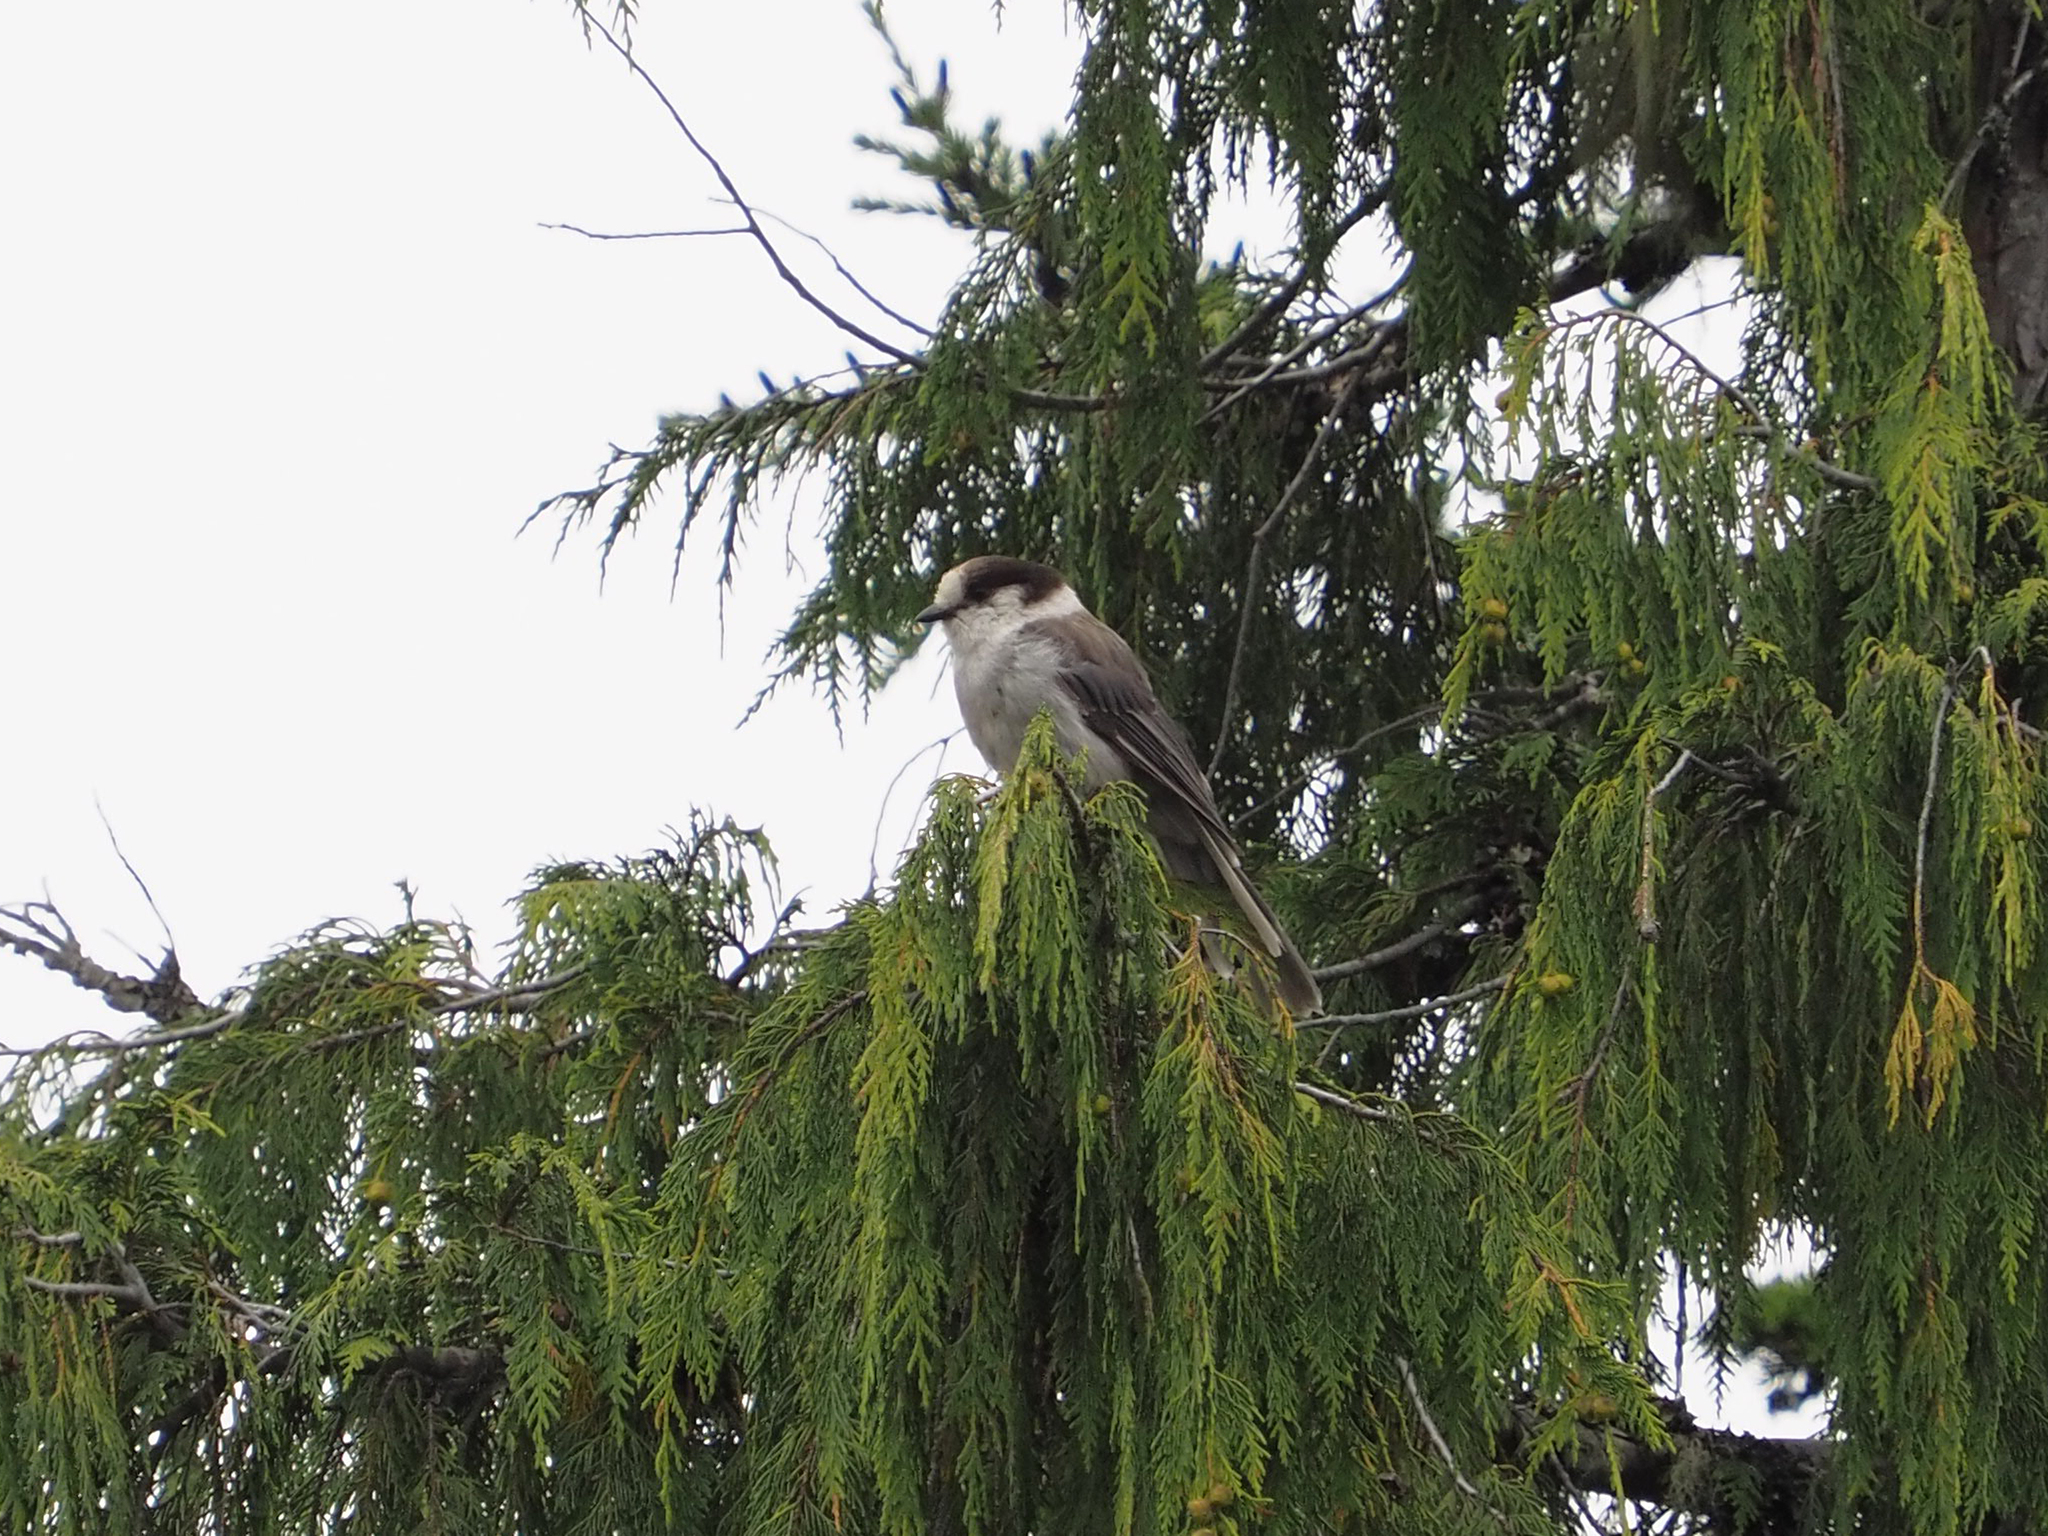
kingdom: Animalia
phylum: Chordata
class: Aves
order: Passeriformes
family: Corvidae
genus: Perisoreus
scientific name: Perisoreus canadensis
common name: Gray jay
